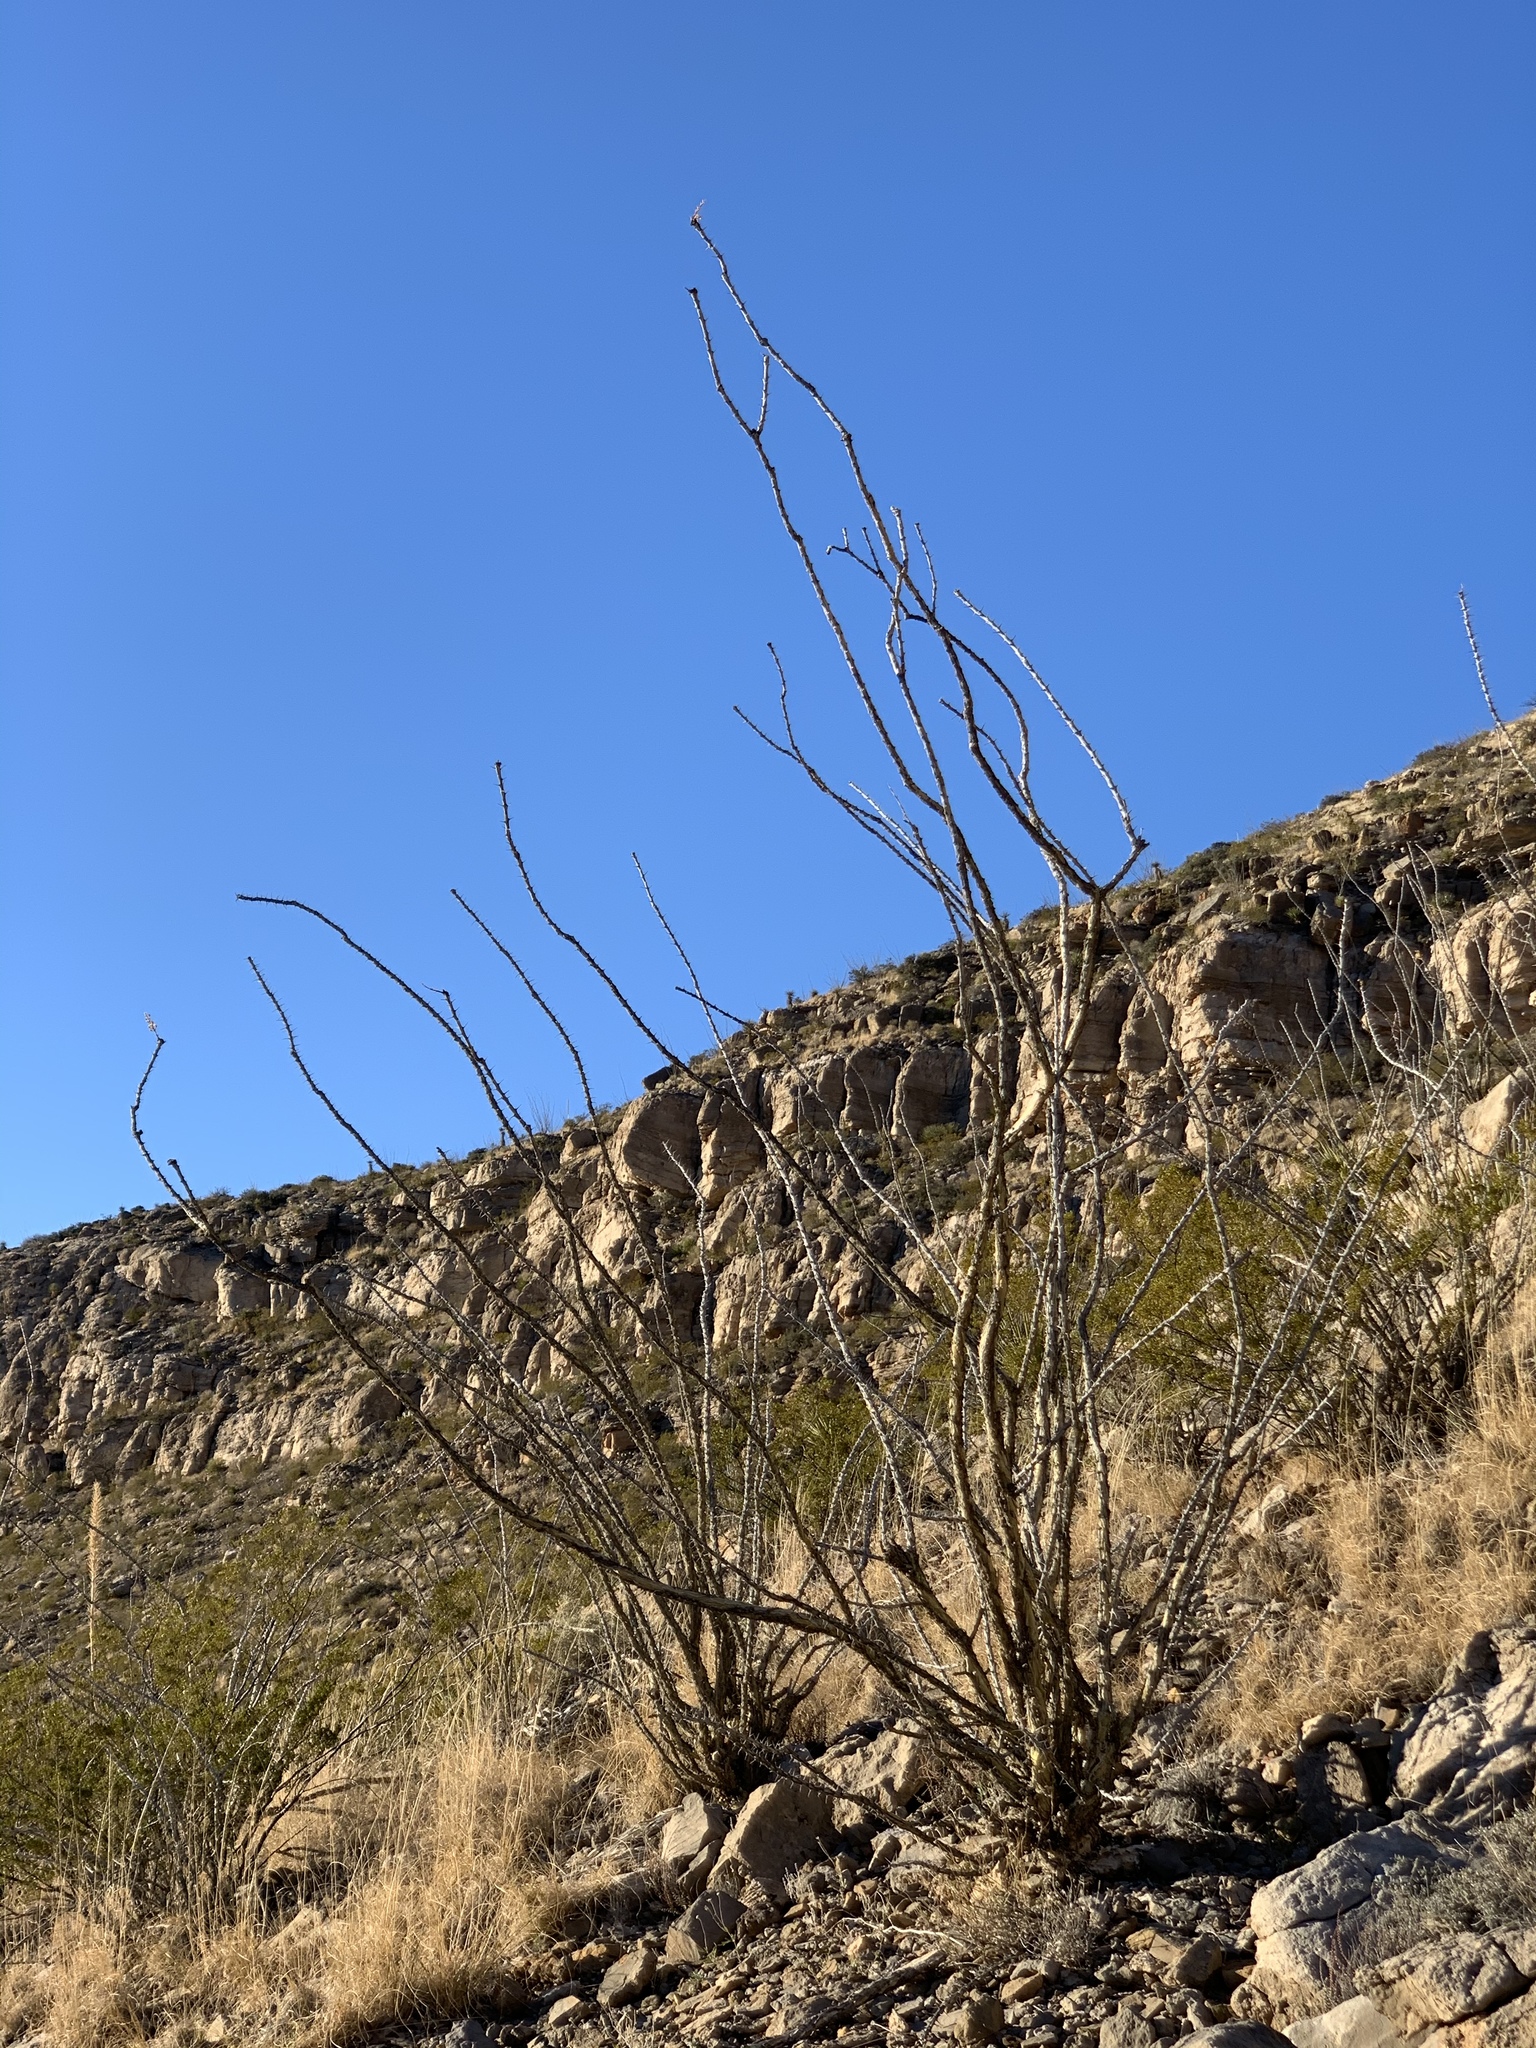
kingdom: Plantae
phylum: Tracheophyta
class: Magnoliopsida
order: Ericales
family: Fouquieriaceae
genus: Fouquieria
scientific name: Fouquieria splendens
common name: Vine-cactus
